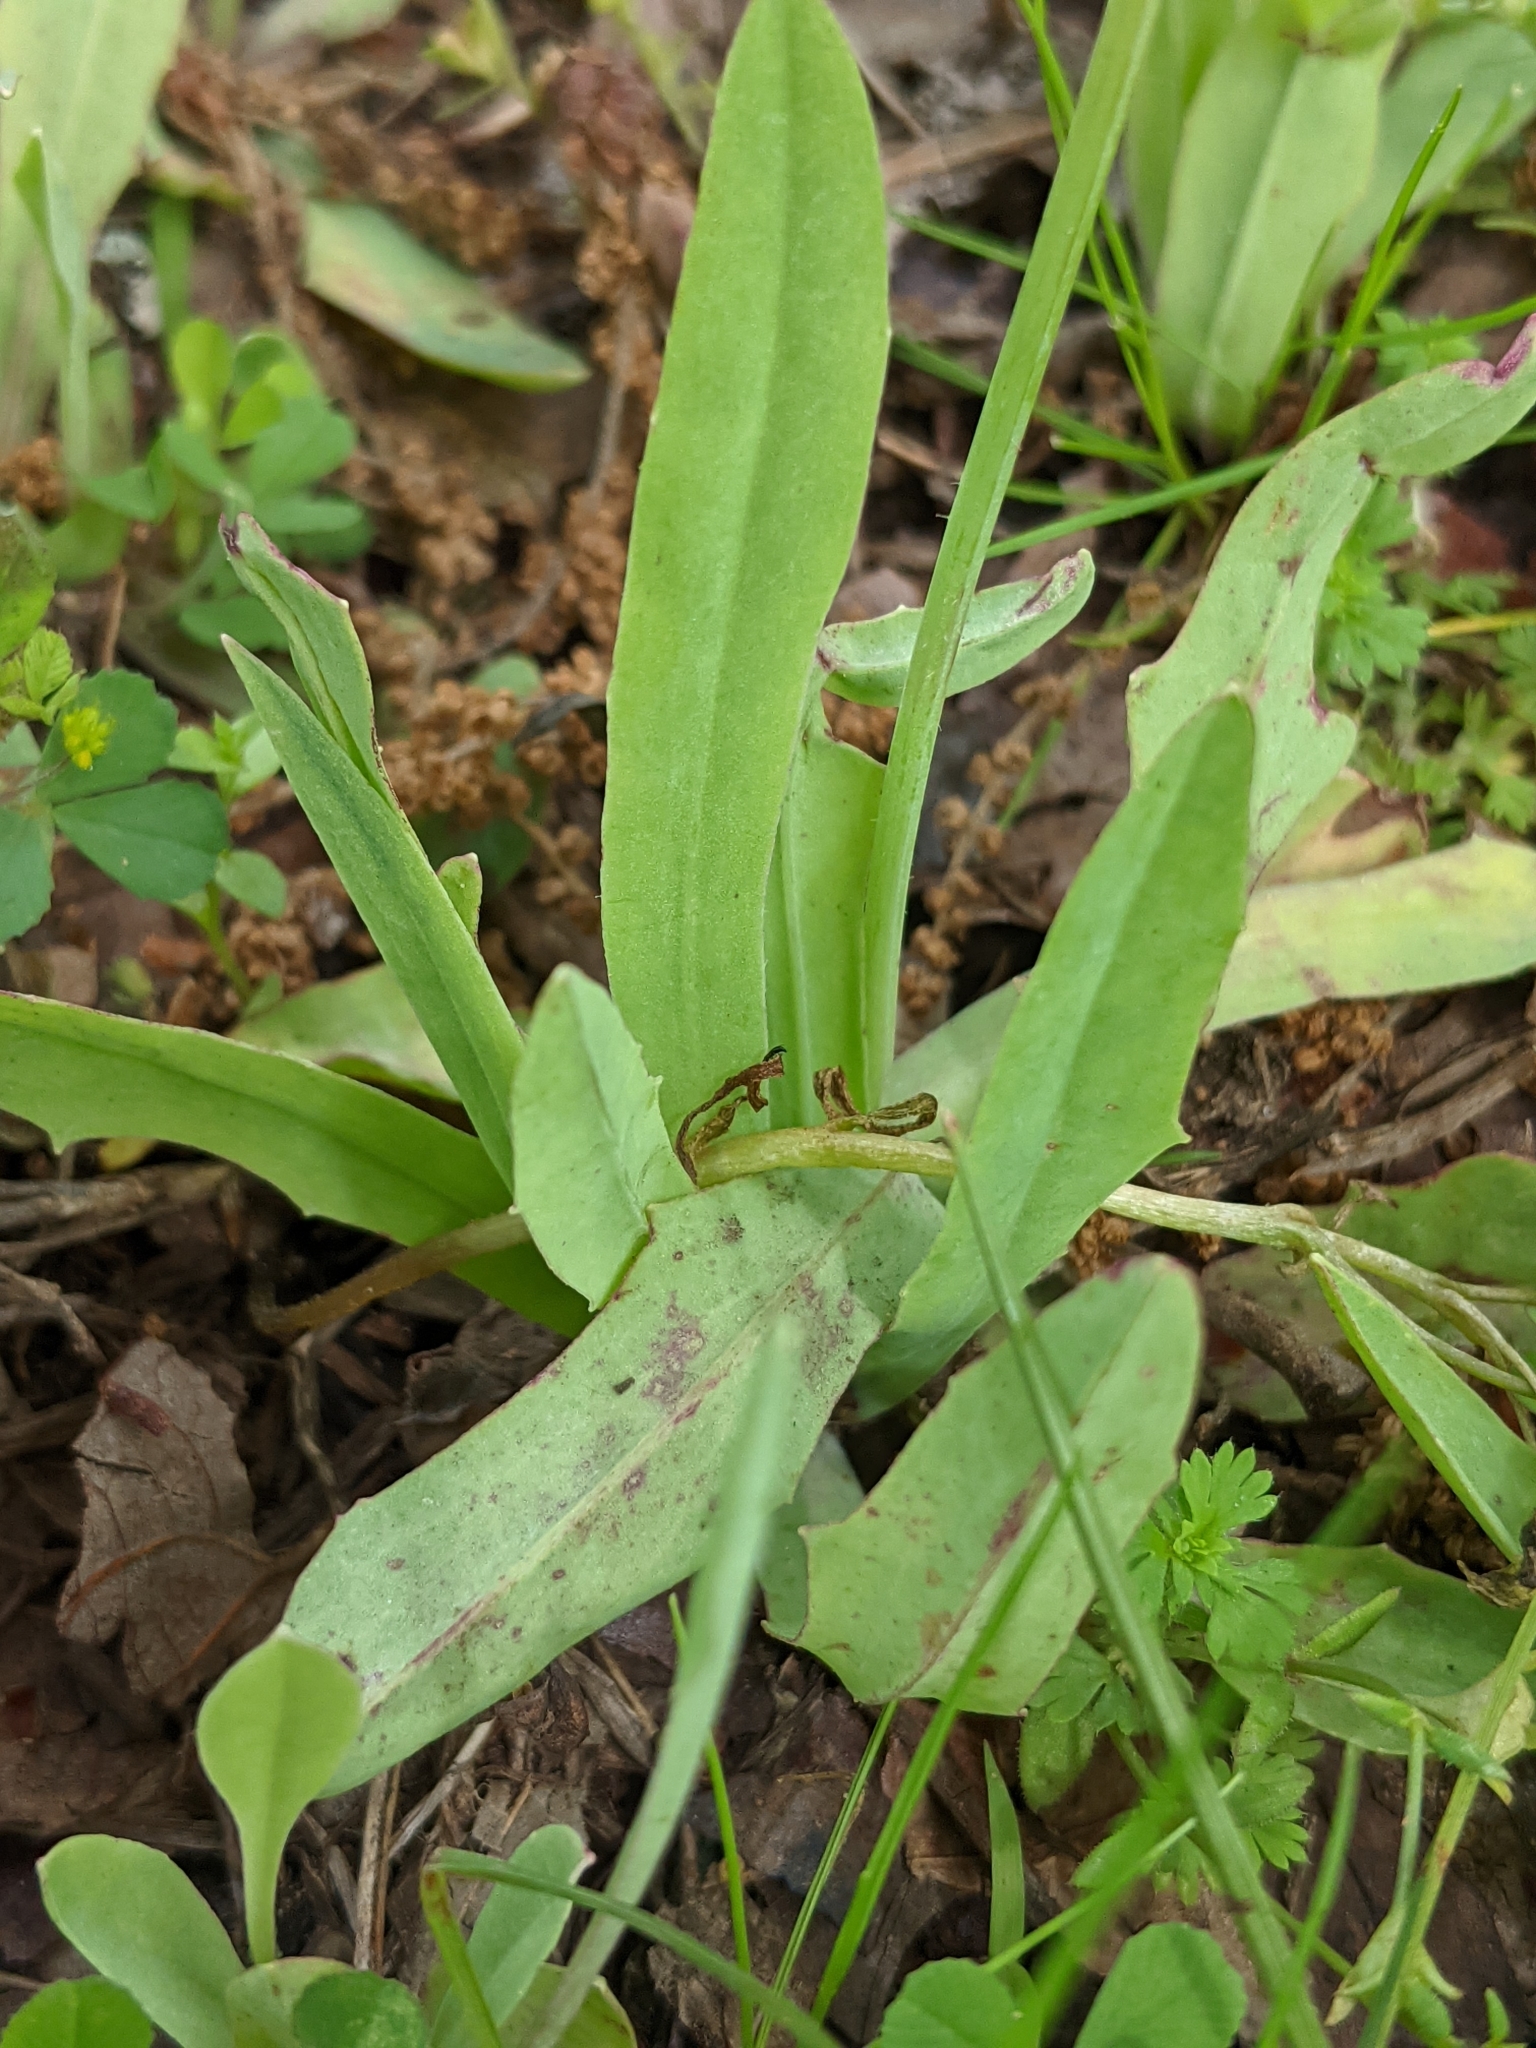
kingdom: Plantae
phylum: Tracheophyta
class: Magnoliopsida
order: Asterales
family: Asteraceae
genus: Krigia
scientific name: Krigia dandelion
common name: Colonial dwarf-dandelion
